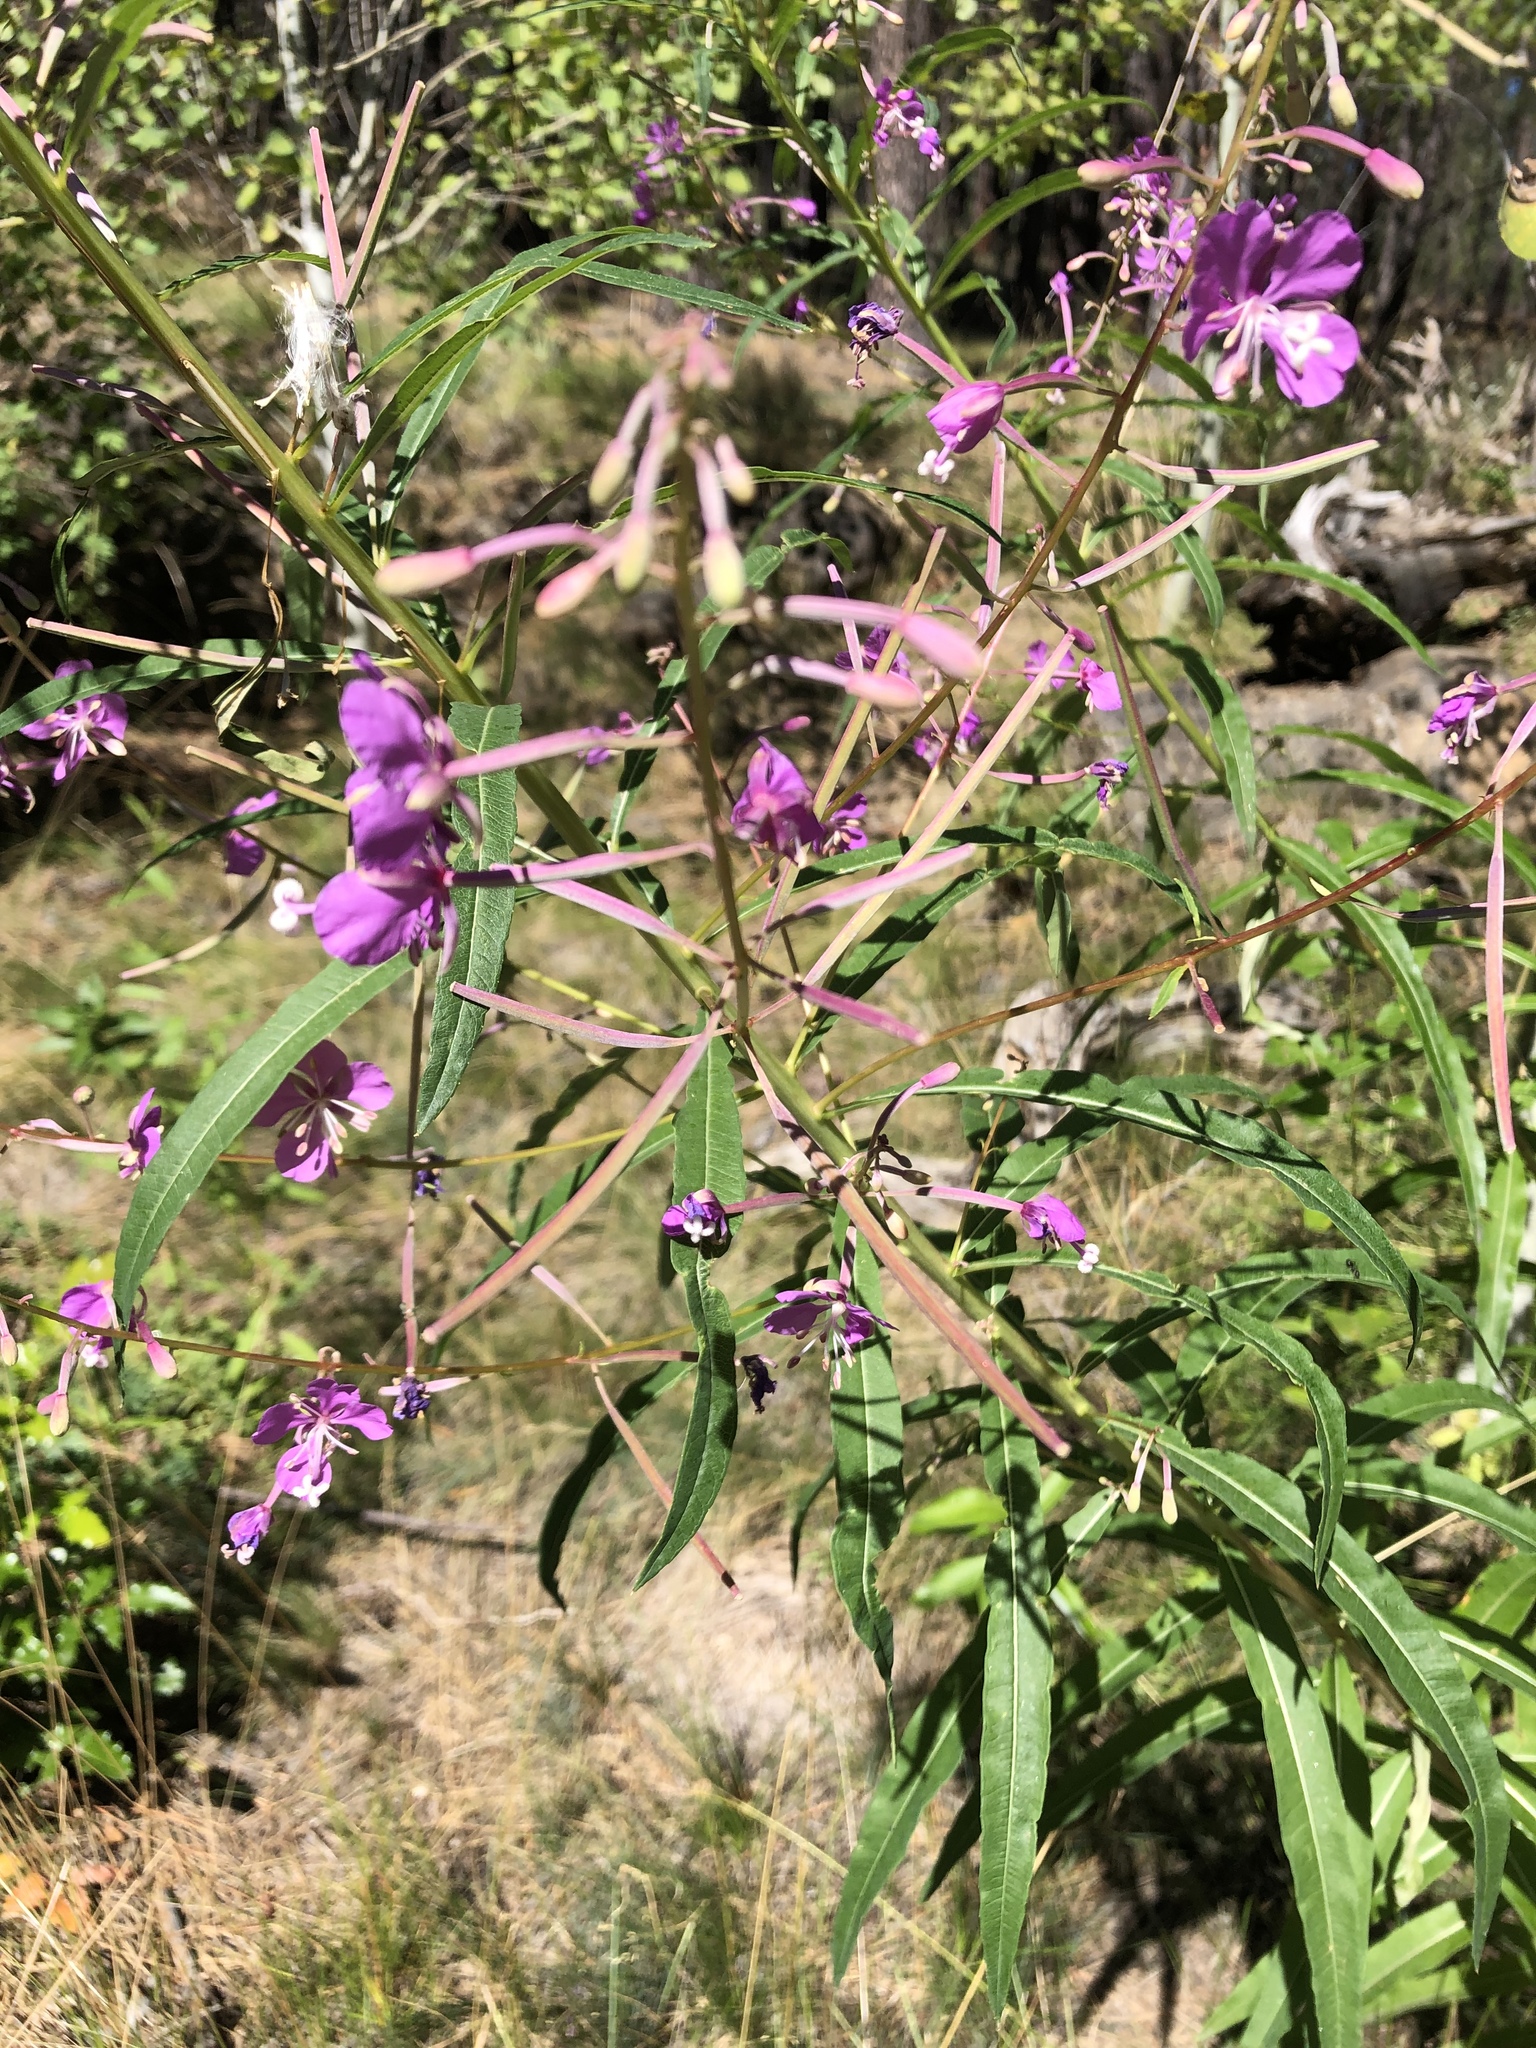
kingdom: Plantae
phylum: Tracheophyta
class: Magnoliopsida
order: Myrtales
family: Onagraceae
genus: Chamaenerion
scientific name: Chamaenerion angustifolium
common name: Fireweed
